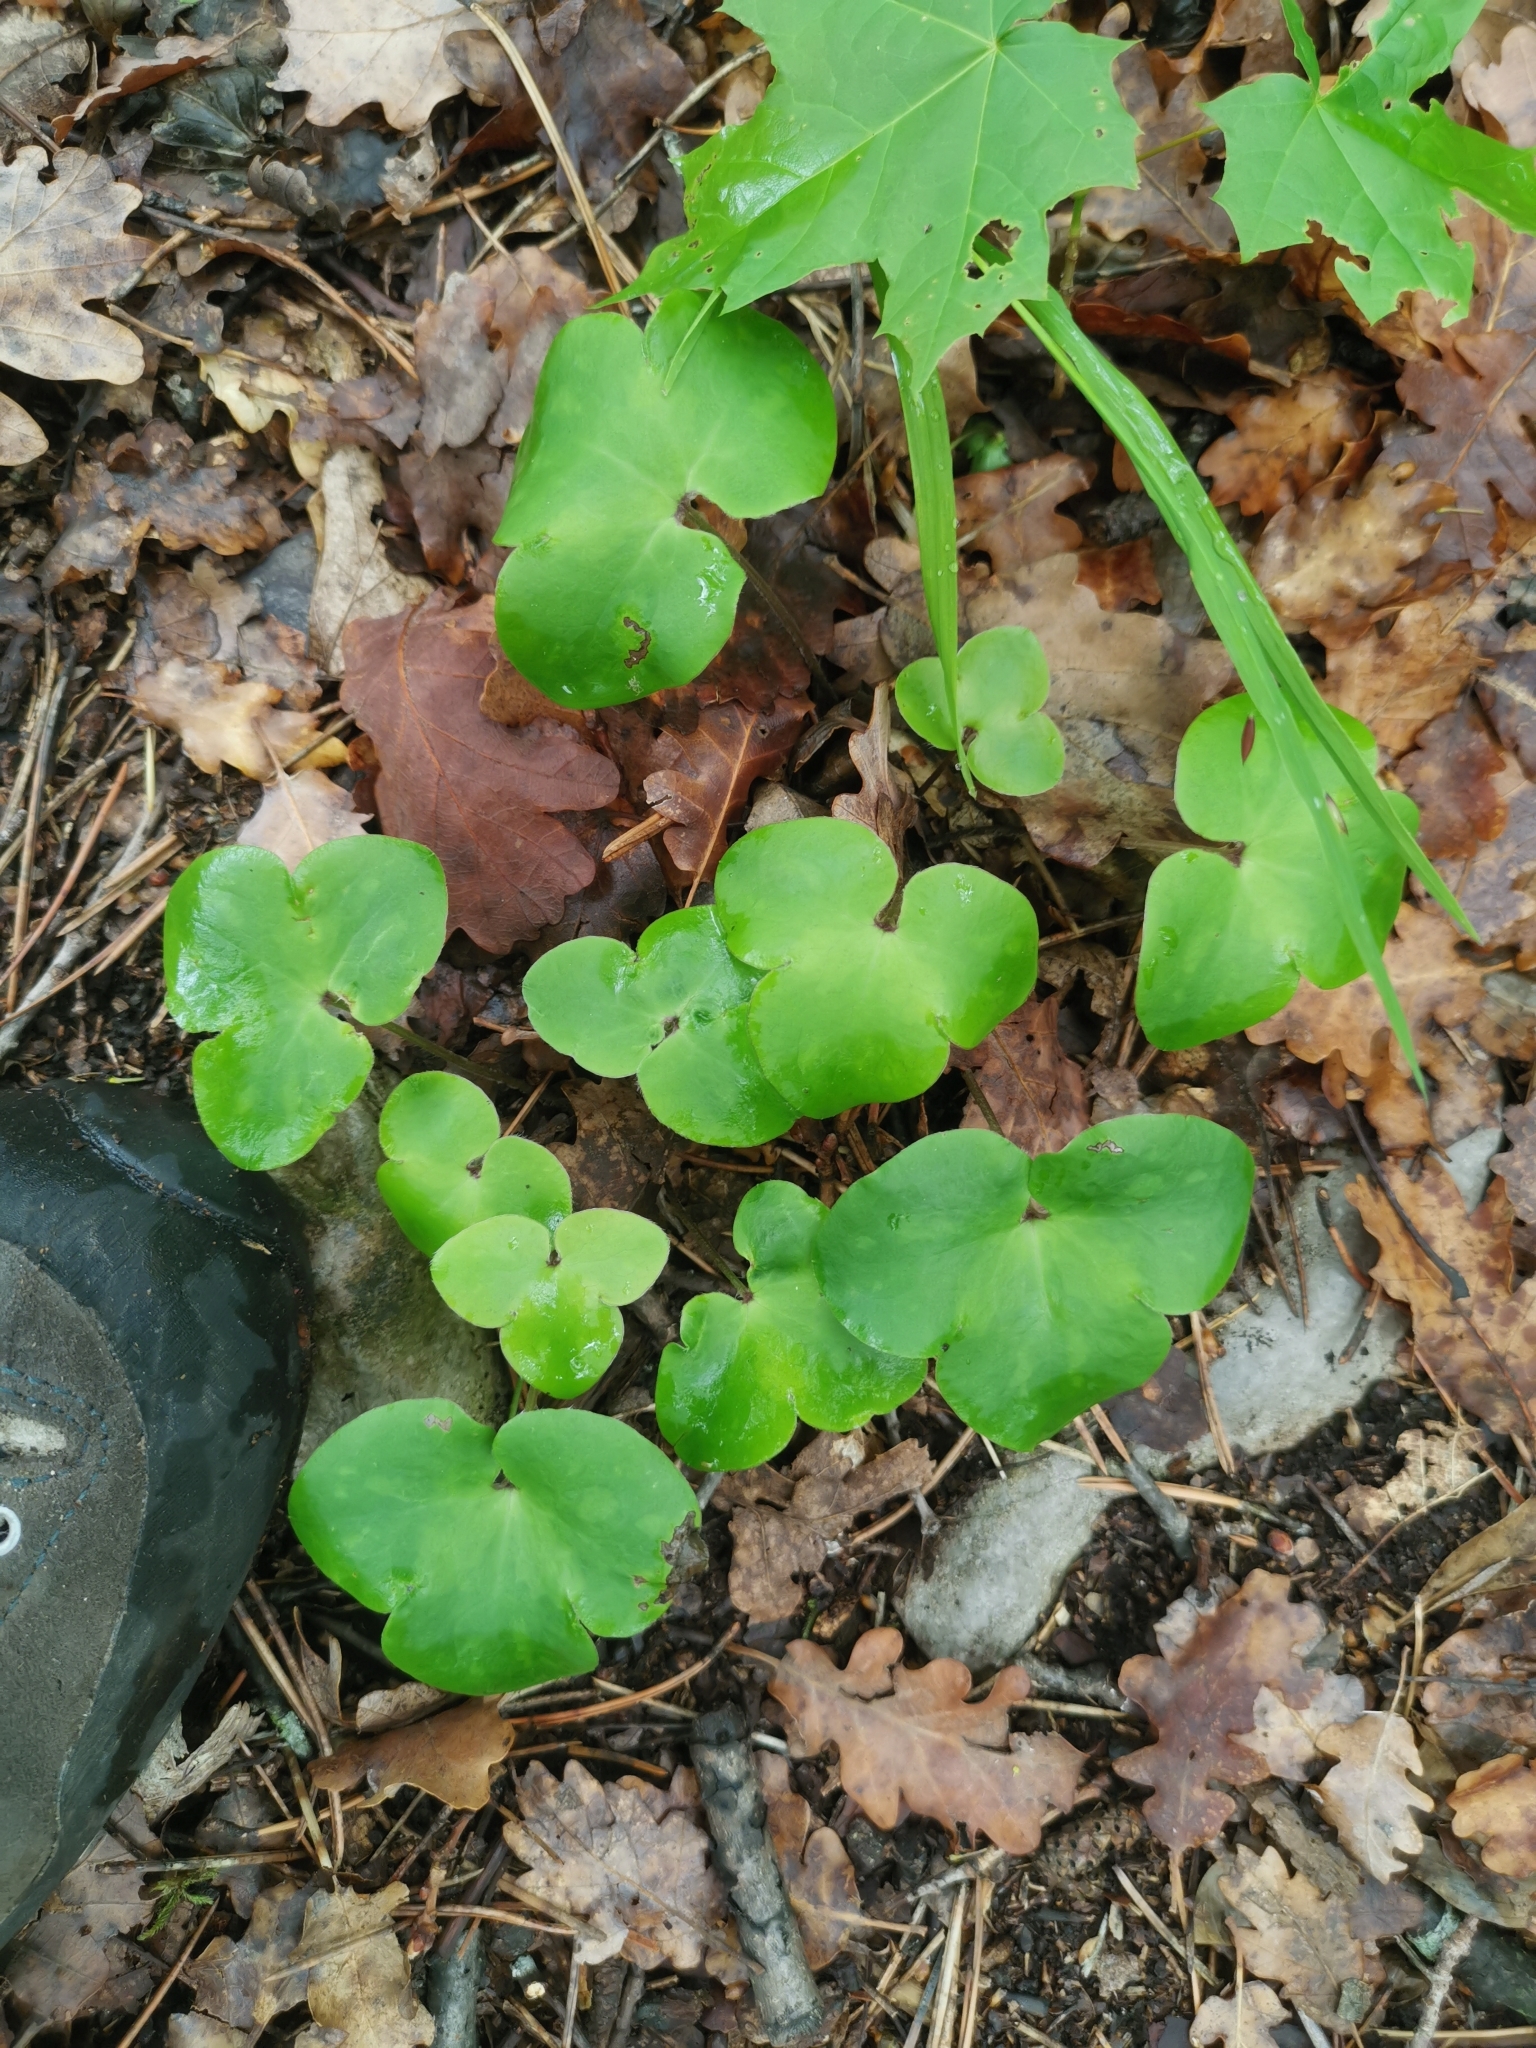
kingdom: Plantae
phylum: Tracheophyta
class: Magnoliopsida
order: Ranunculales
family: Ranunculaceae
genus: Hepatica
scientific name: Hepatica nobilis
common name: Liverleaf
